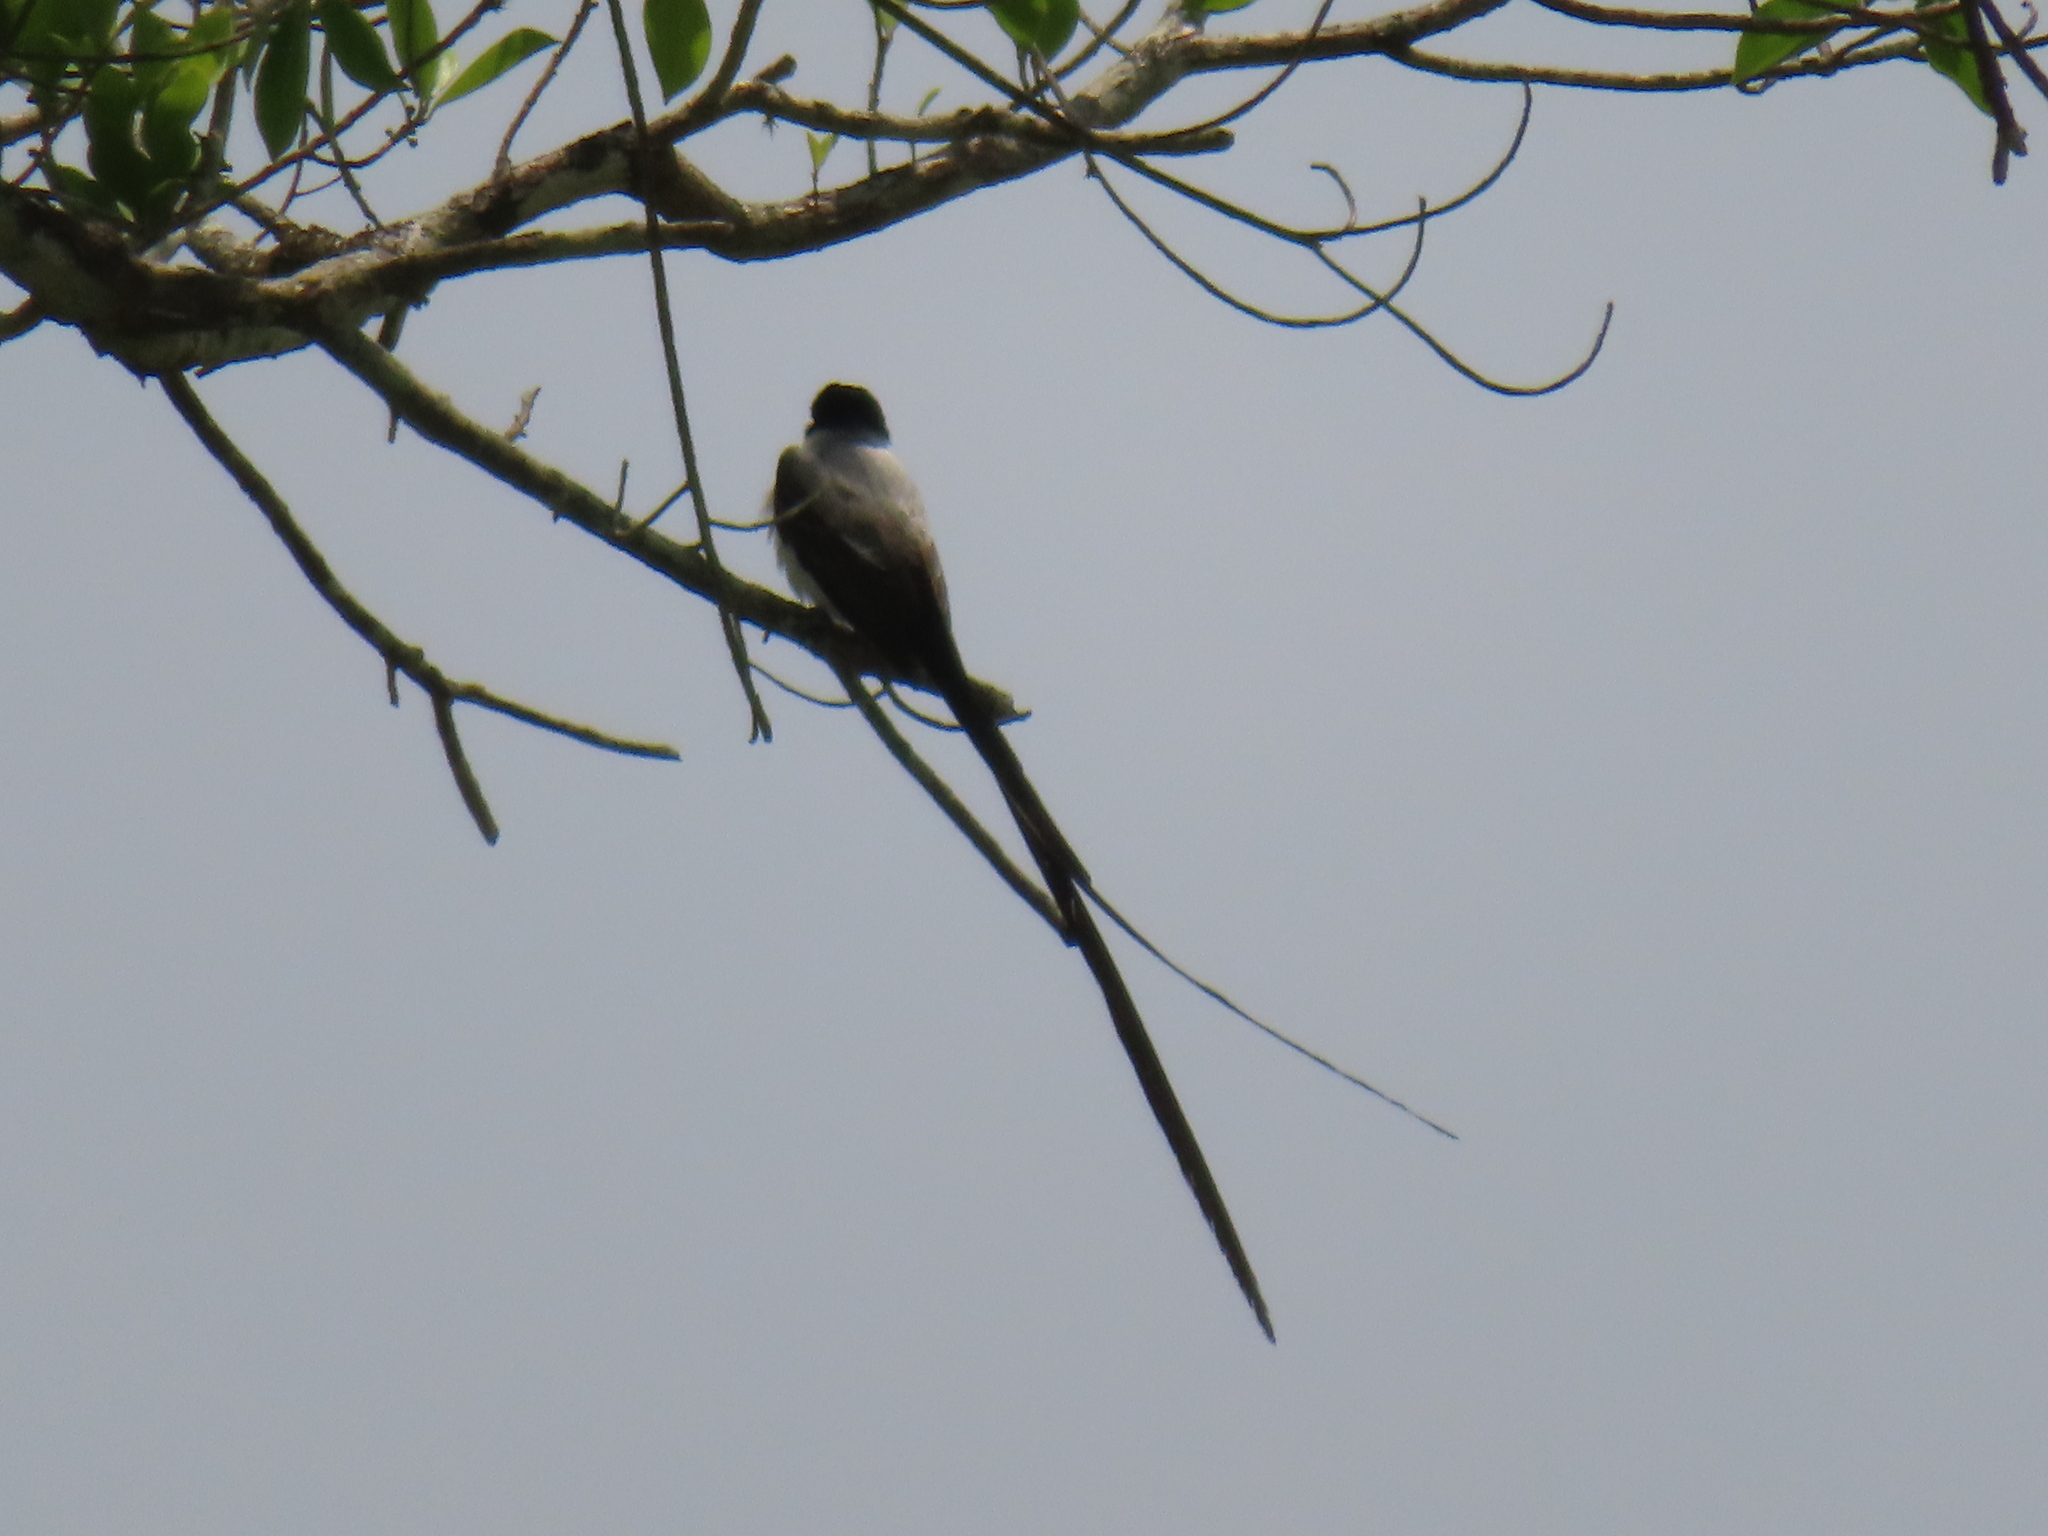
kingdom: Animalia
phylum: Chordata
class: Aves
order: Passeriformes
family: Tyrannidae
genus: Tyrannus
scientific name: Tyrannus savana
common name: Fork-tailed flycatcher
